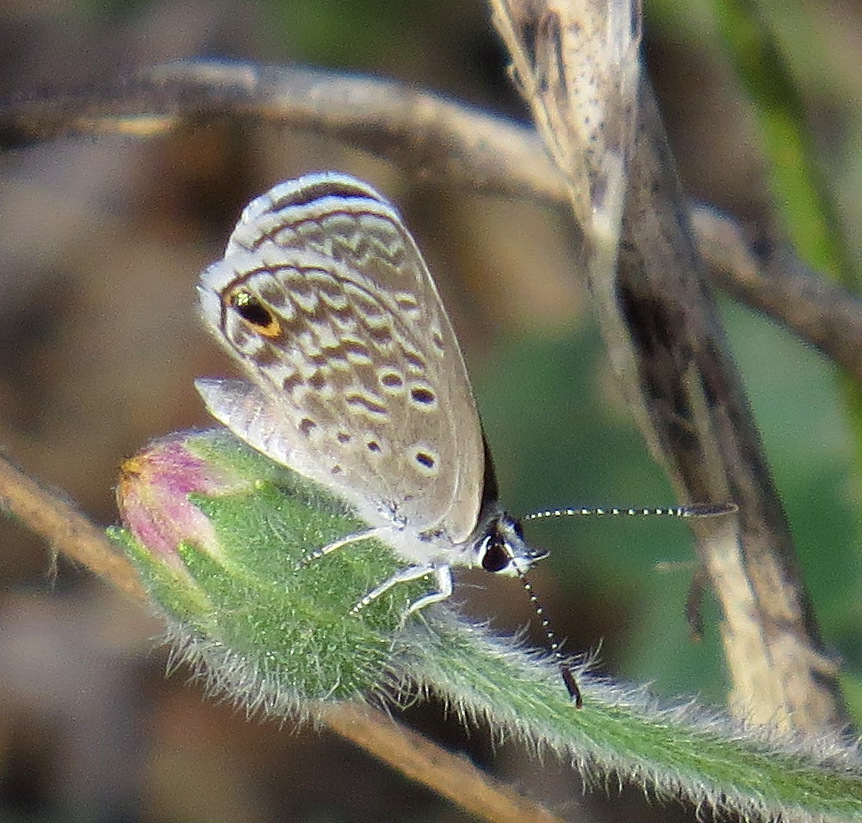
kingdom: Animalia
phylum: Arthropoda
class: Insecta
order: Lepidoptera
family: Lycaenidae
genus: Hemiargus
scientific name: Hemiargus hanno
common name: Common blue
